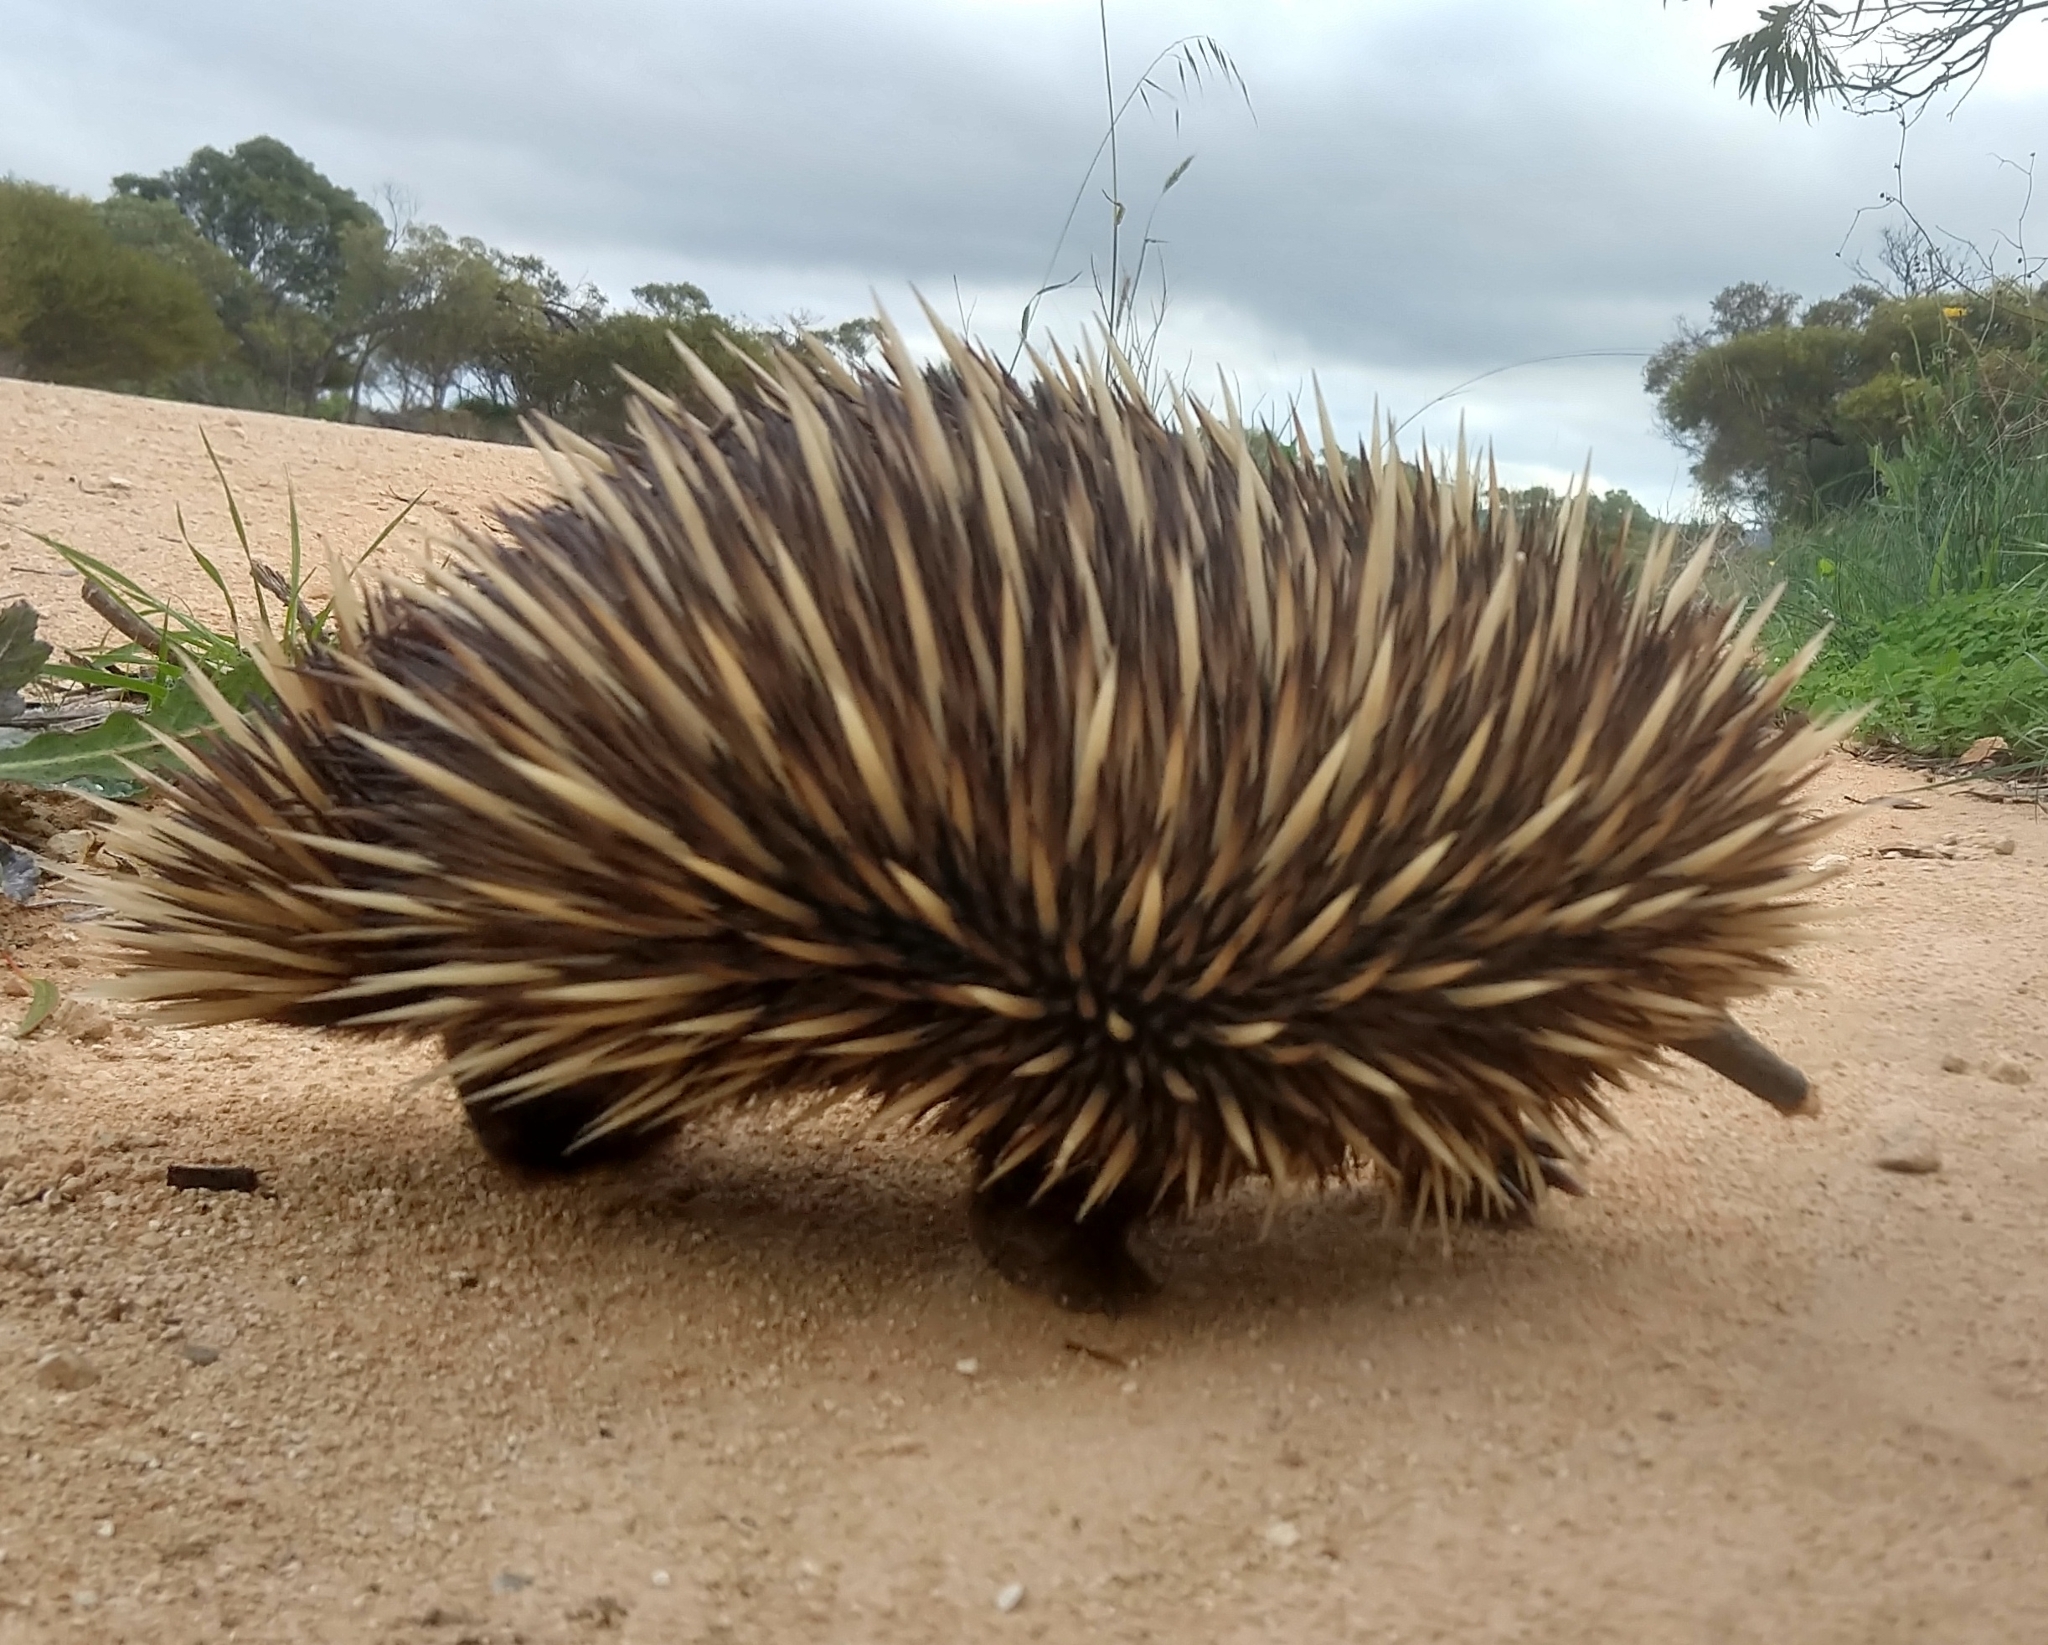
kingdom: Animalia
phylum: Chordata
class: Mammalia
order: Monotremata
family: Tachyglossidae
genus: Tachyglossus
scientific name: Tachyglossus aculeatus
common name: Short-beaked echidna
